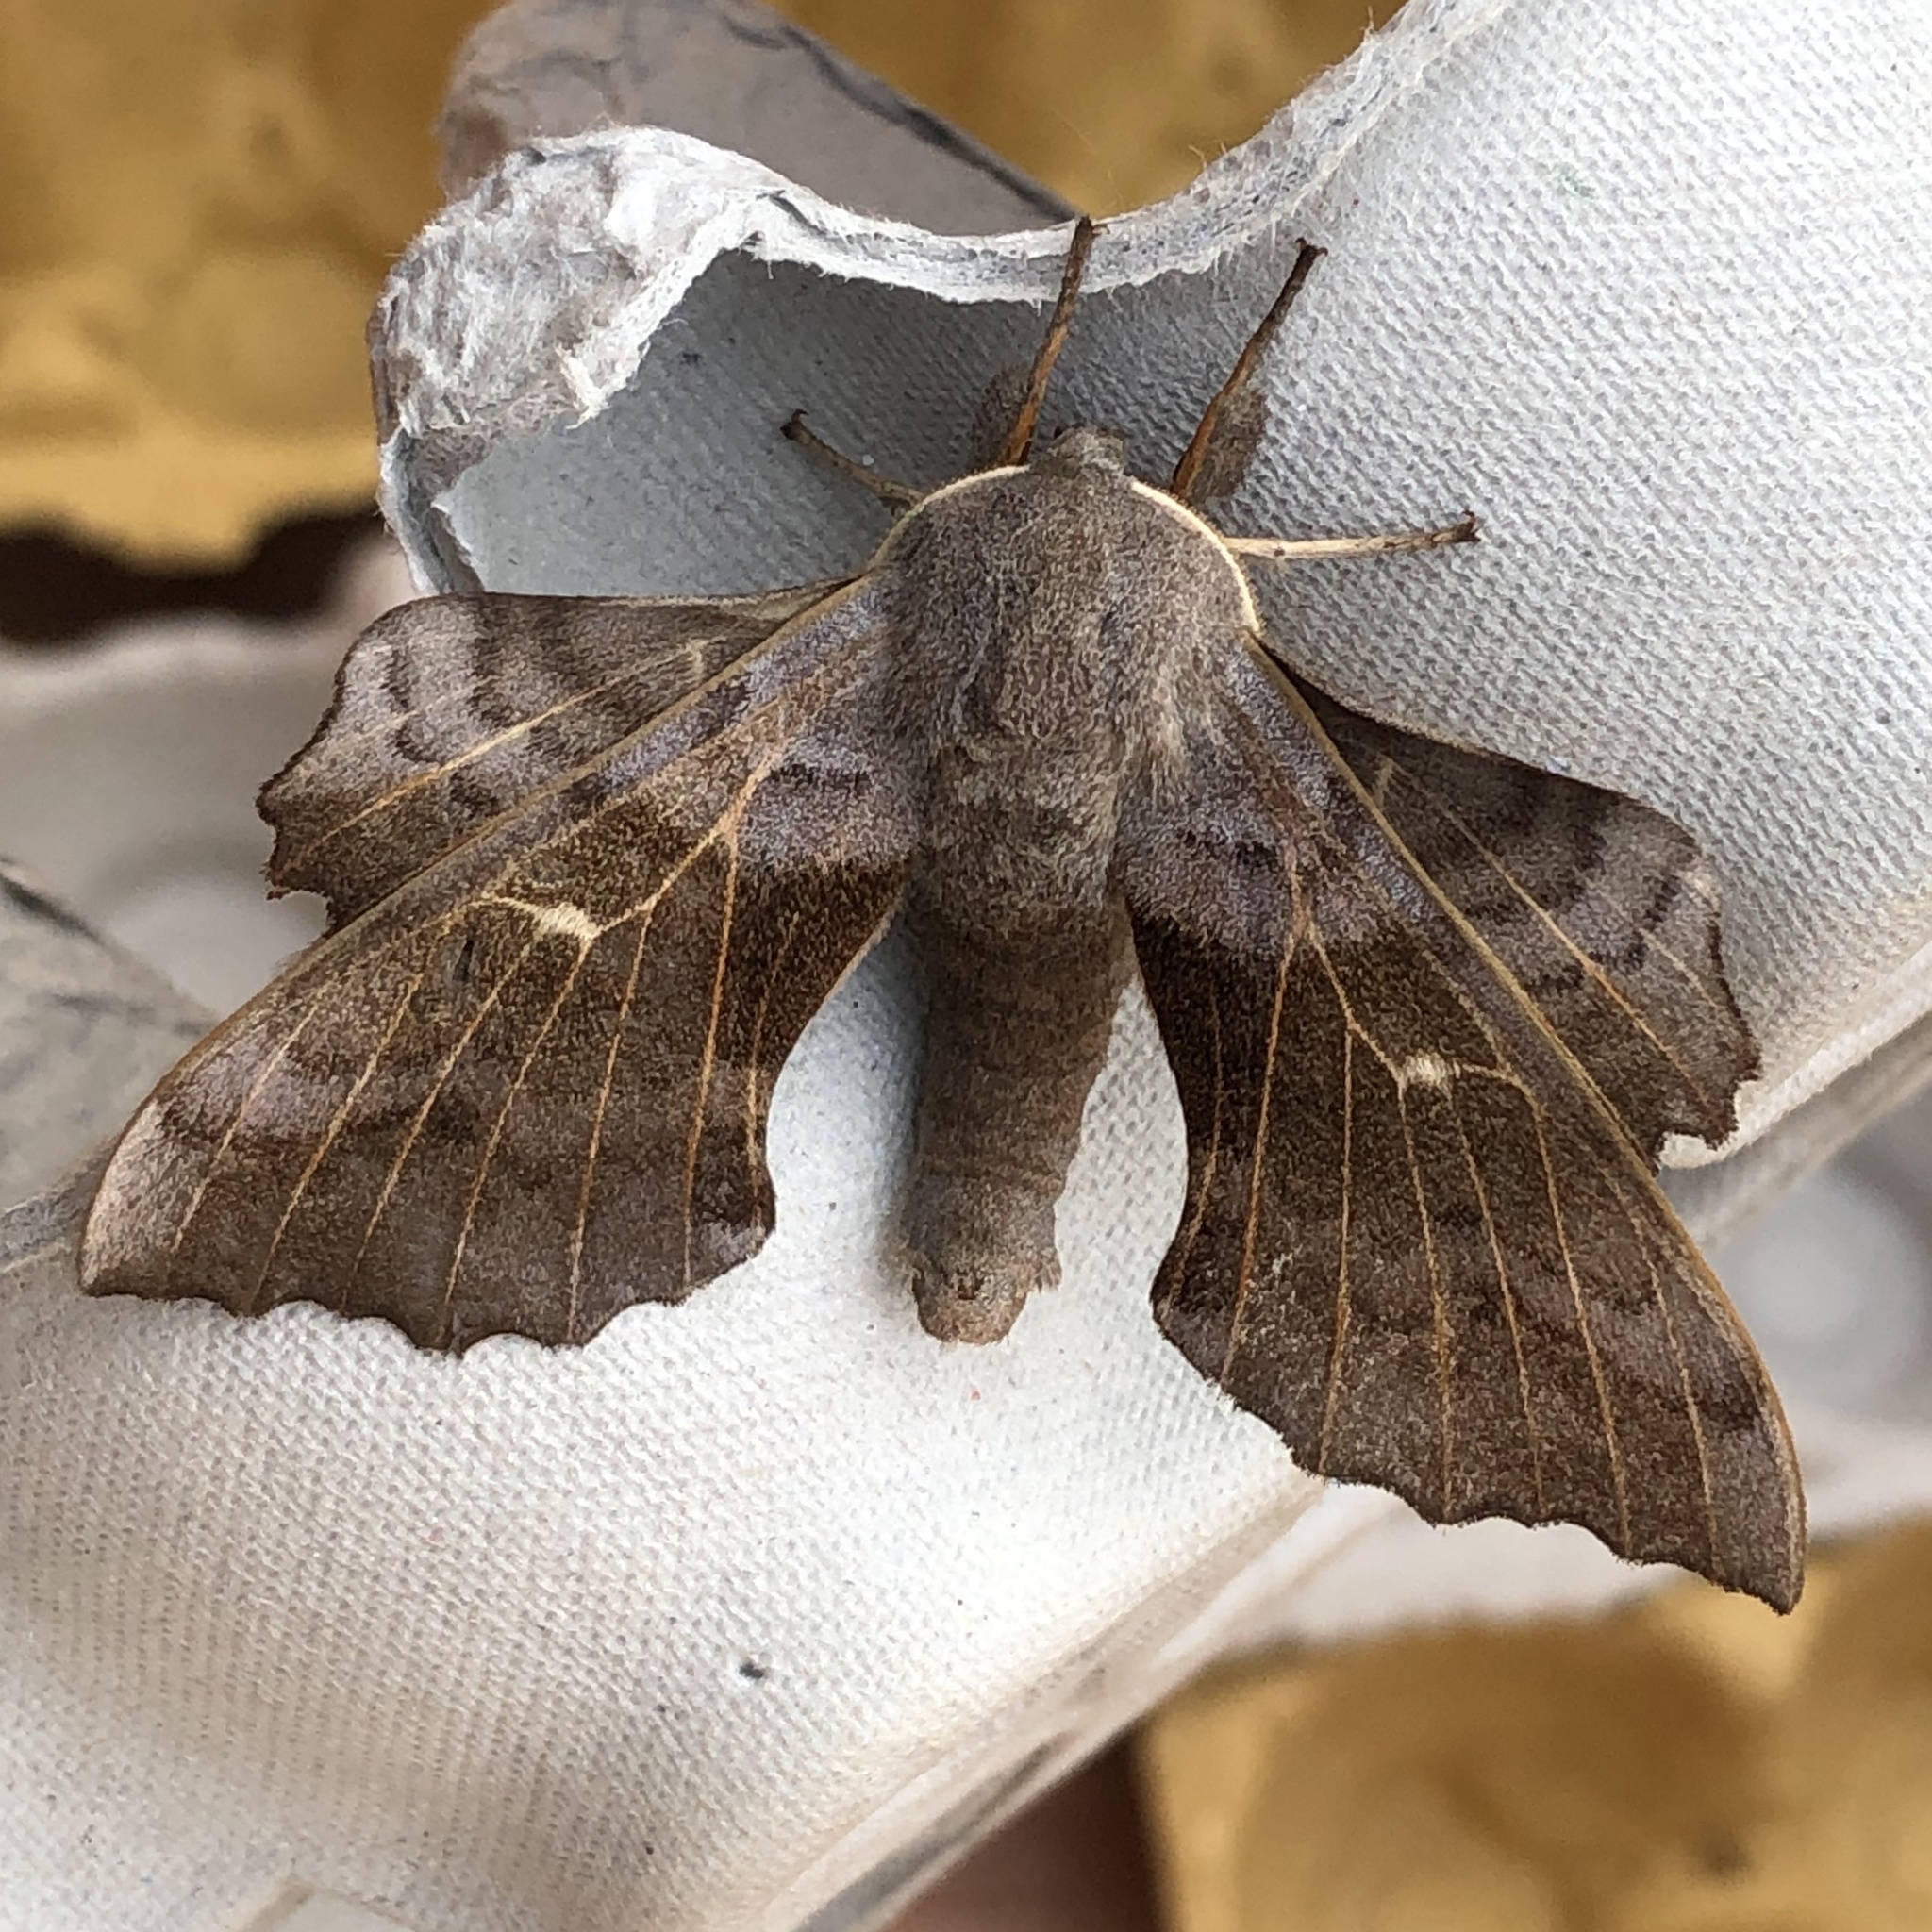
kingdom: Animalia
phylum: Arthropoda
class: Insecta
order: Lepidoptera
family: Sphingidae
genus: Laothoe
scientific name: Laothoe populi
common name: Poplar hawk-moth
